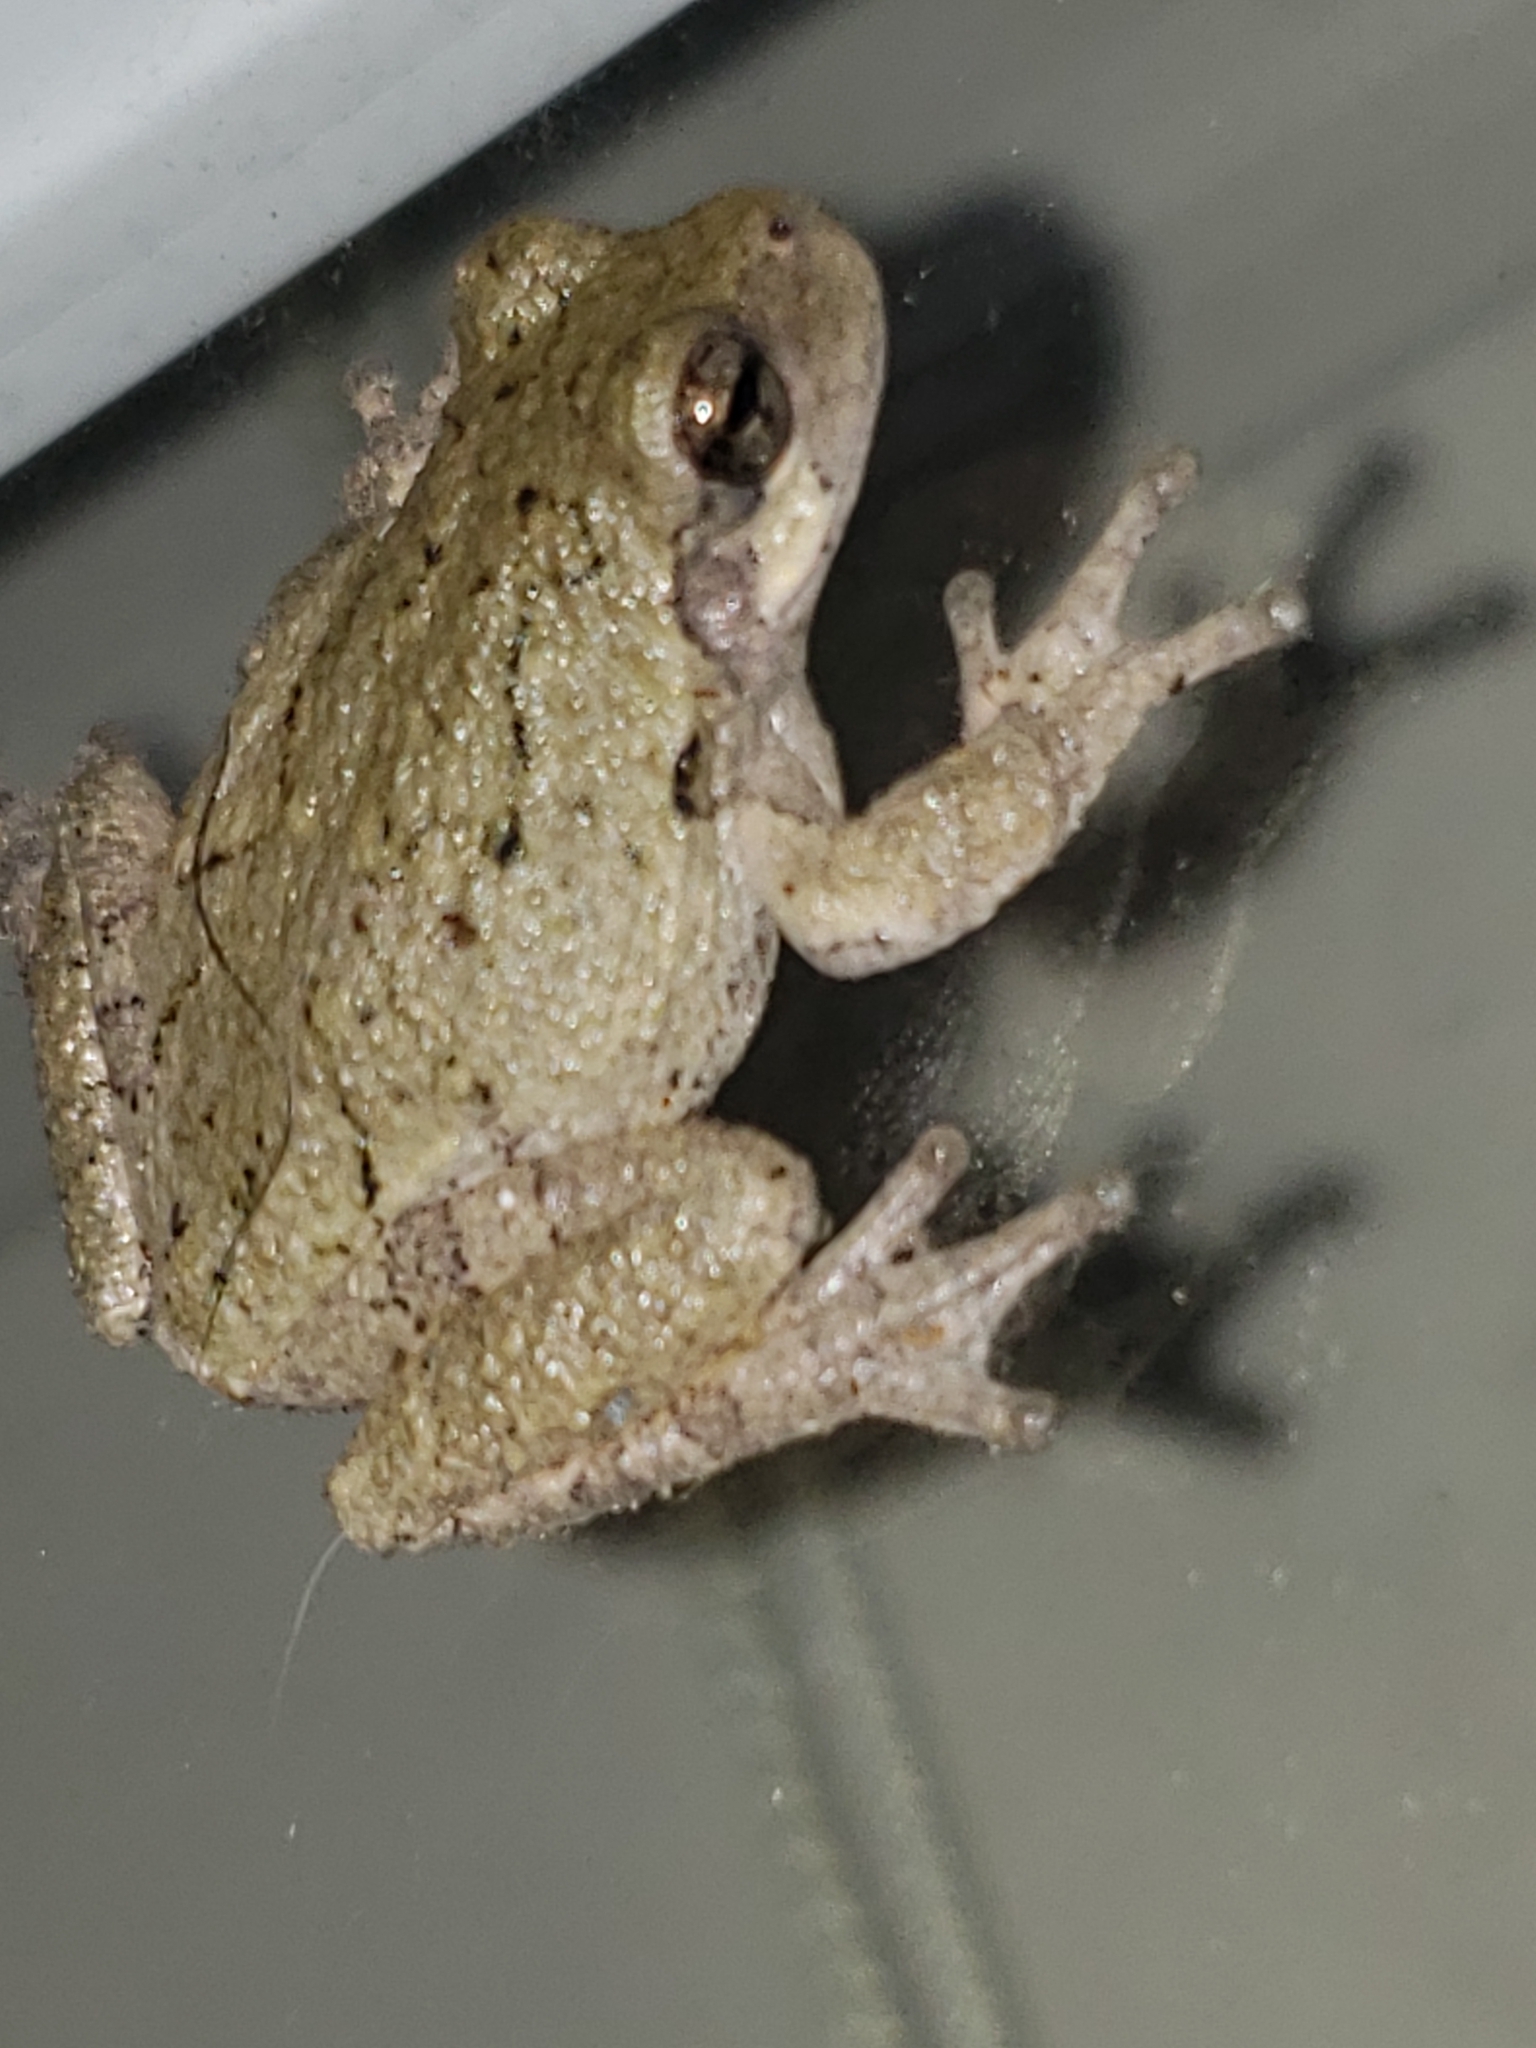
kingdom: Animalia
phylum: Chordata
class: Amphibia
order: Anura
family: Hylidae
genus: Hyla
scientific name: Hyla
